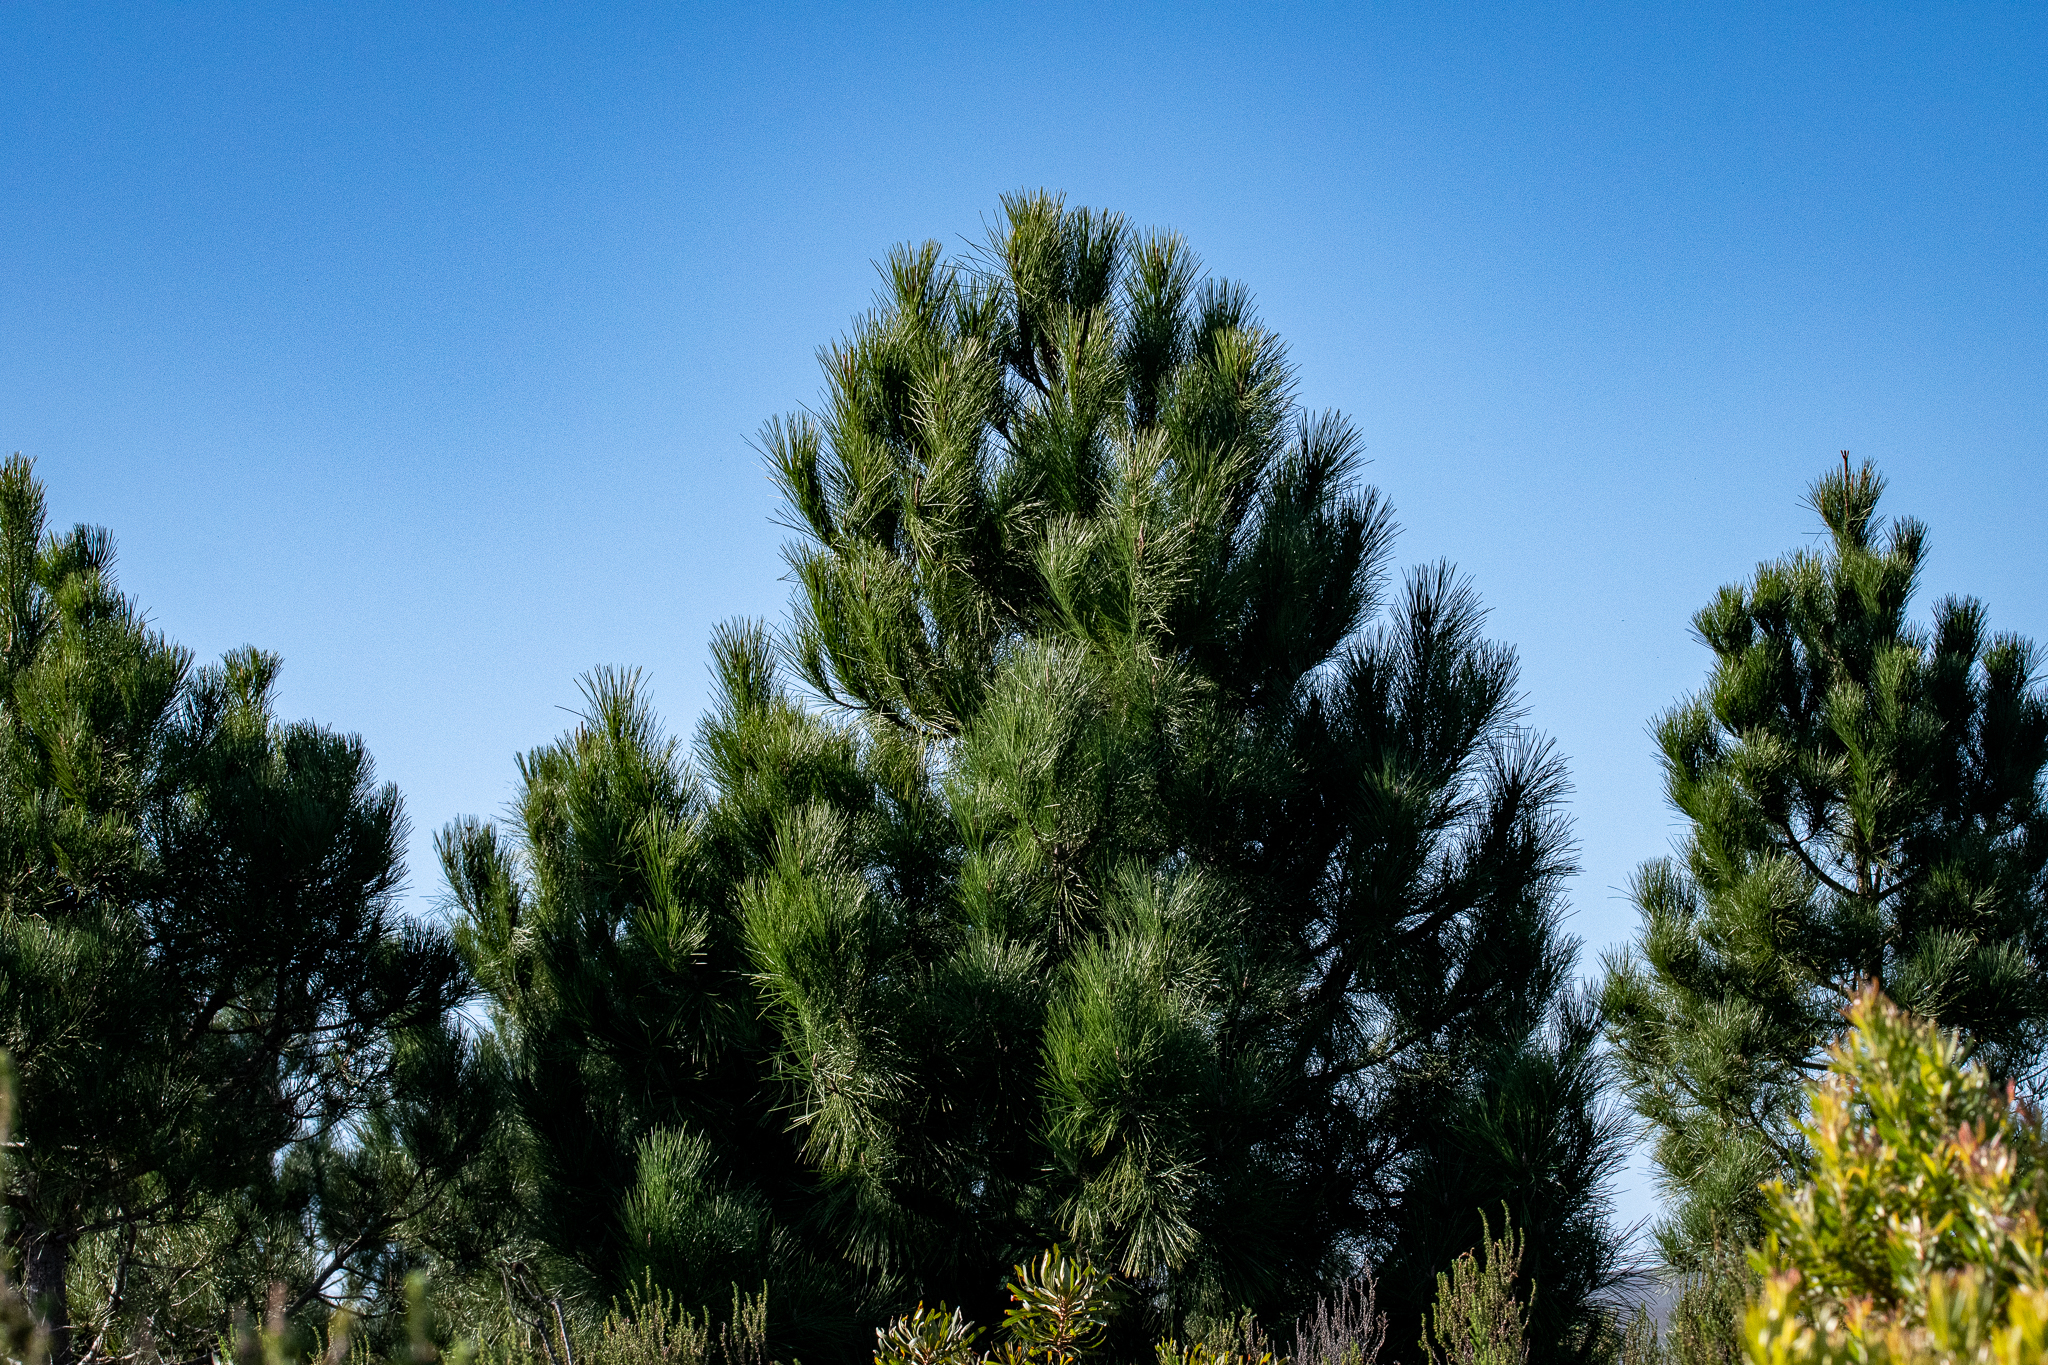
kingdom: Plantae
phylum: Tracheophyta
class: Pinopsida
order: Pinales
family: Pinaceae
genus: Pinus
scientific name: Pinus pinaster
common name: Maritime pine
